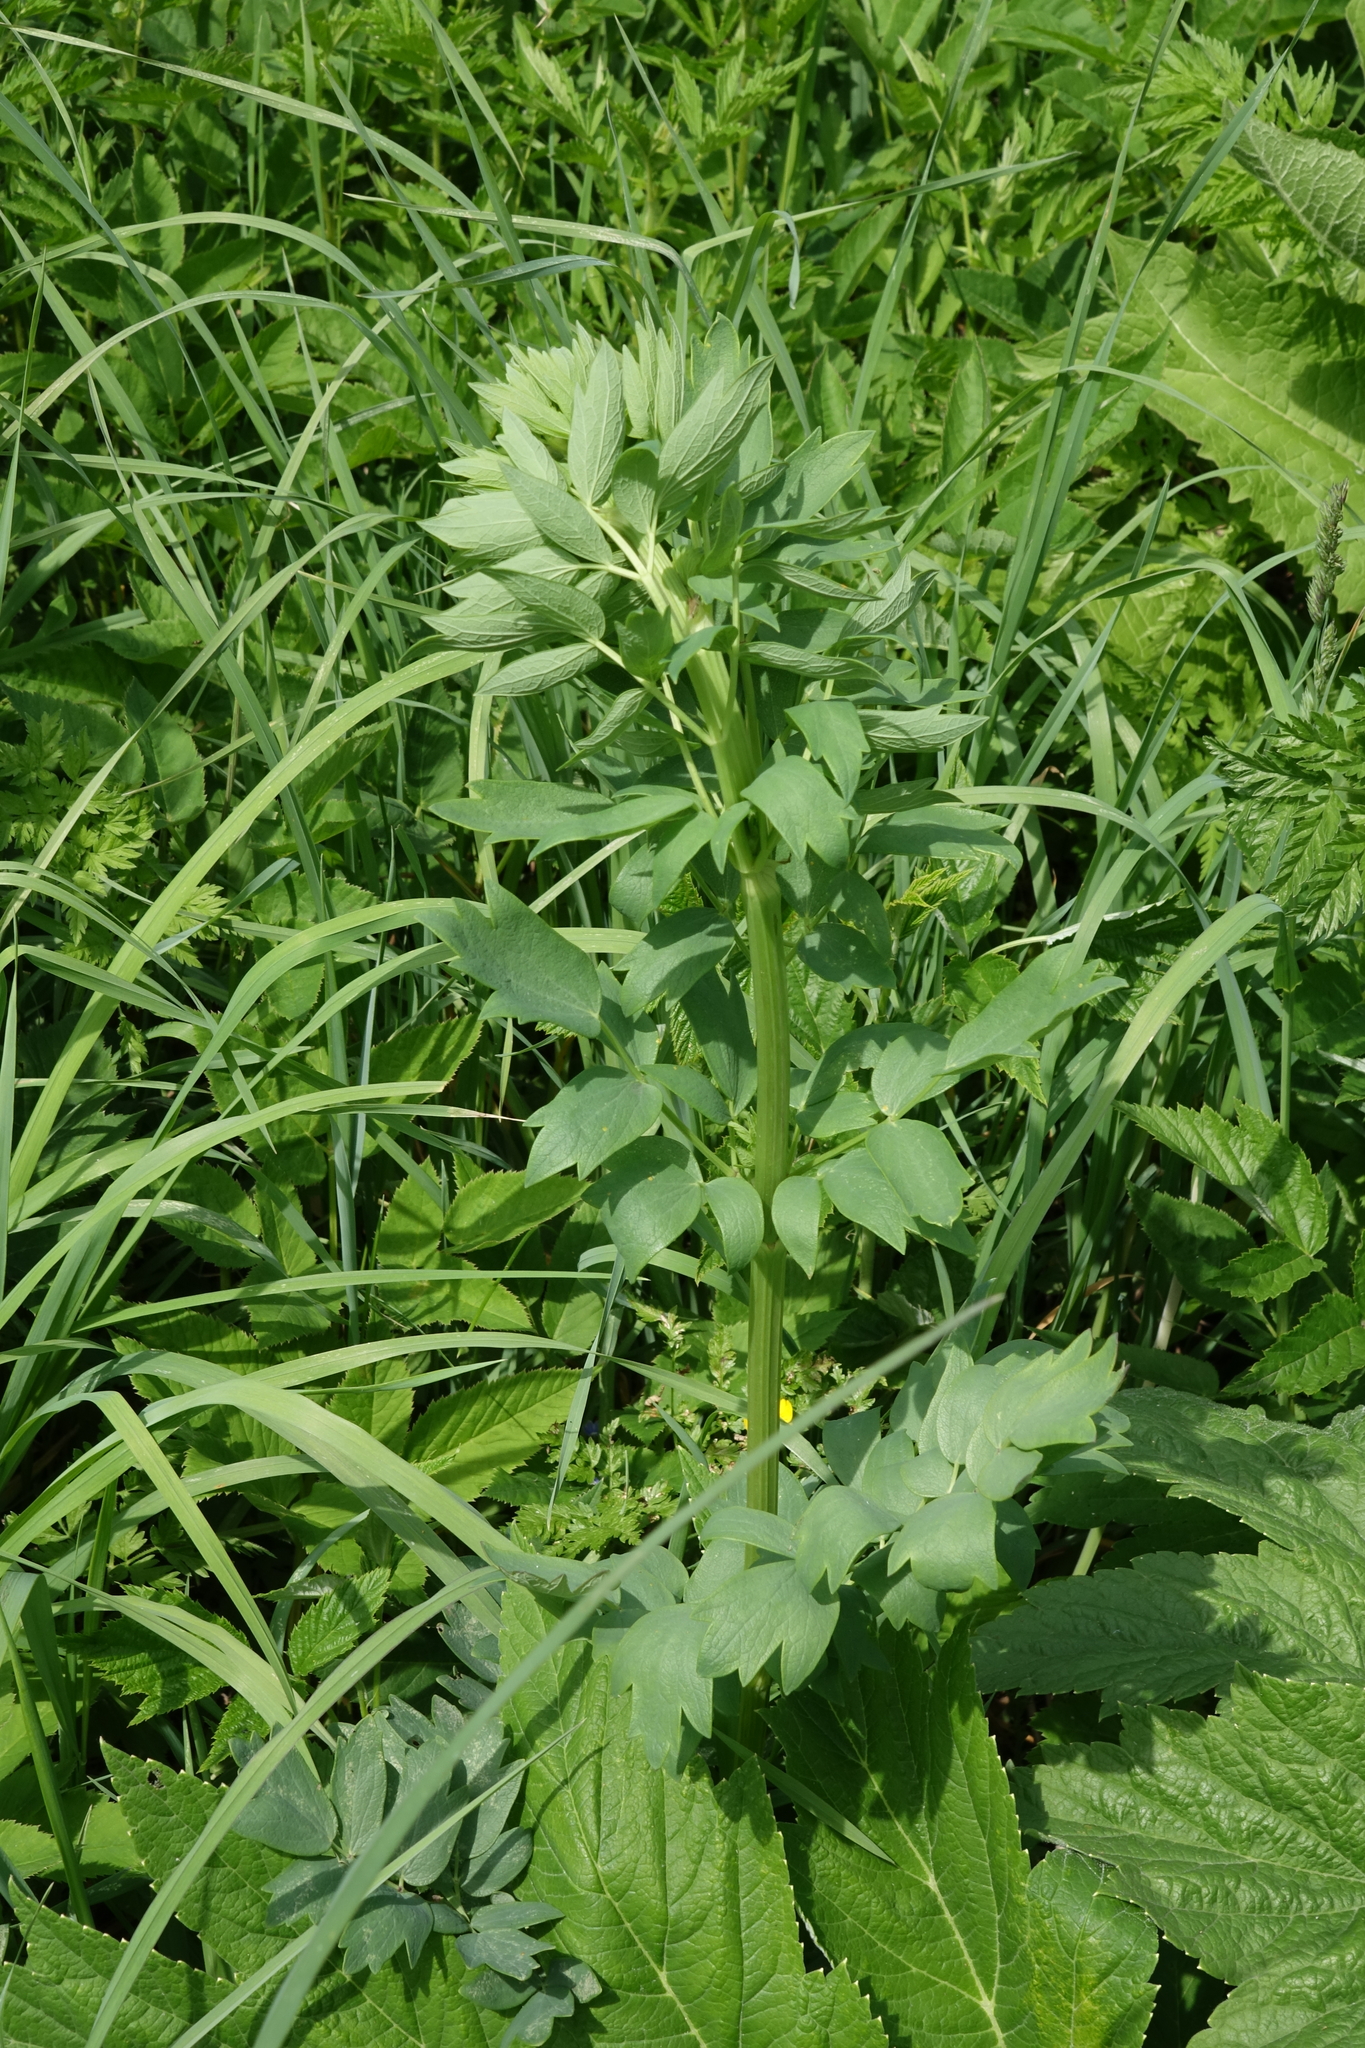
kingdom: Plantae
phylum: Tracheophyta
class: Magnoliopsida
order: Ranunculales
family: Ranunculaceae
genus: Thalictrum
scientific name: Thalictrum simplex
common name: Small meadow-rue
